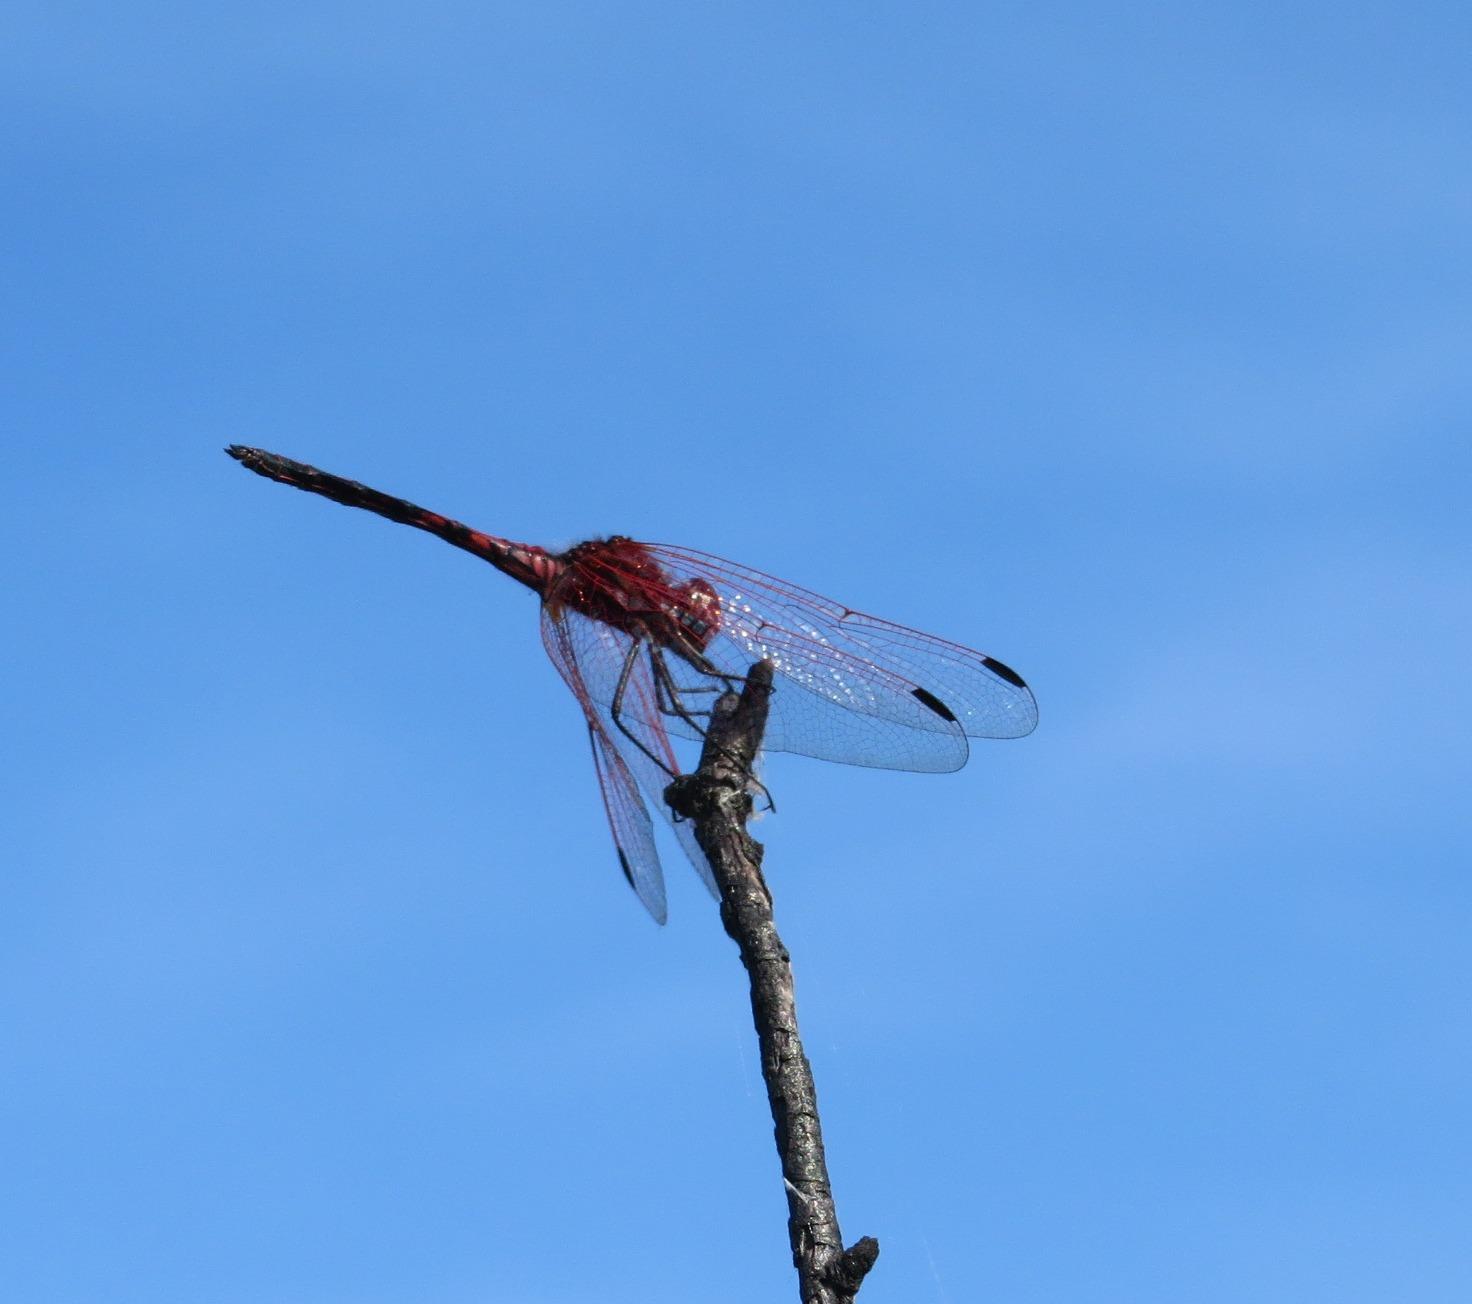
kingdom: Animalia
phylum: Arthropoda
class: Insecta
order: Odonata
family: Libellulidae
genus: Trithemis
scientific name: Trithemis arteriosa
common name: Red-veined dropwing
